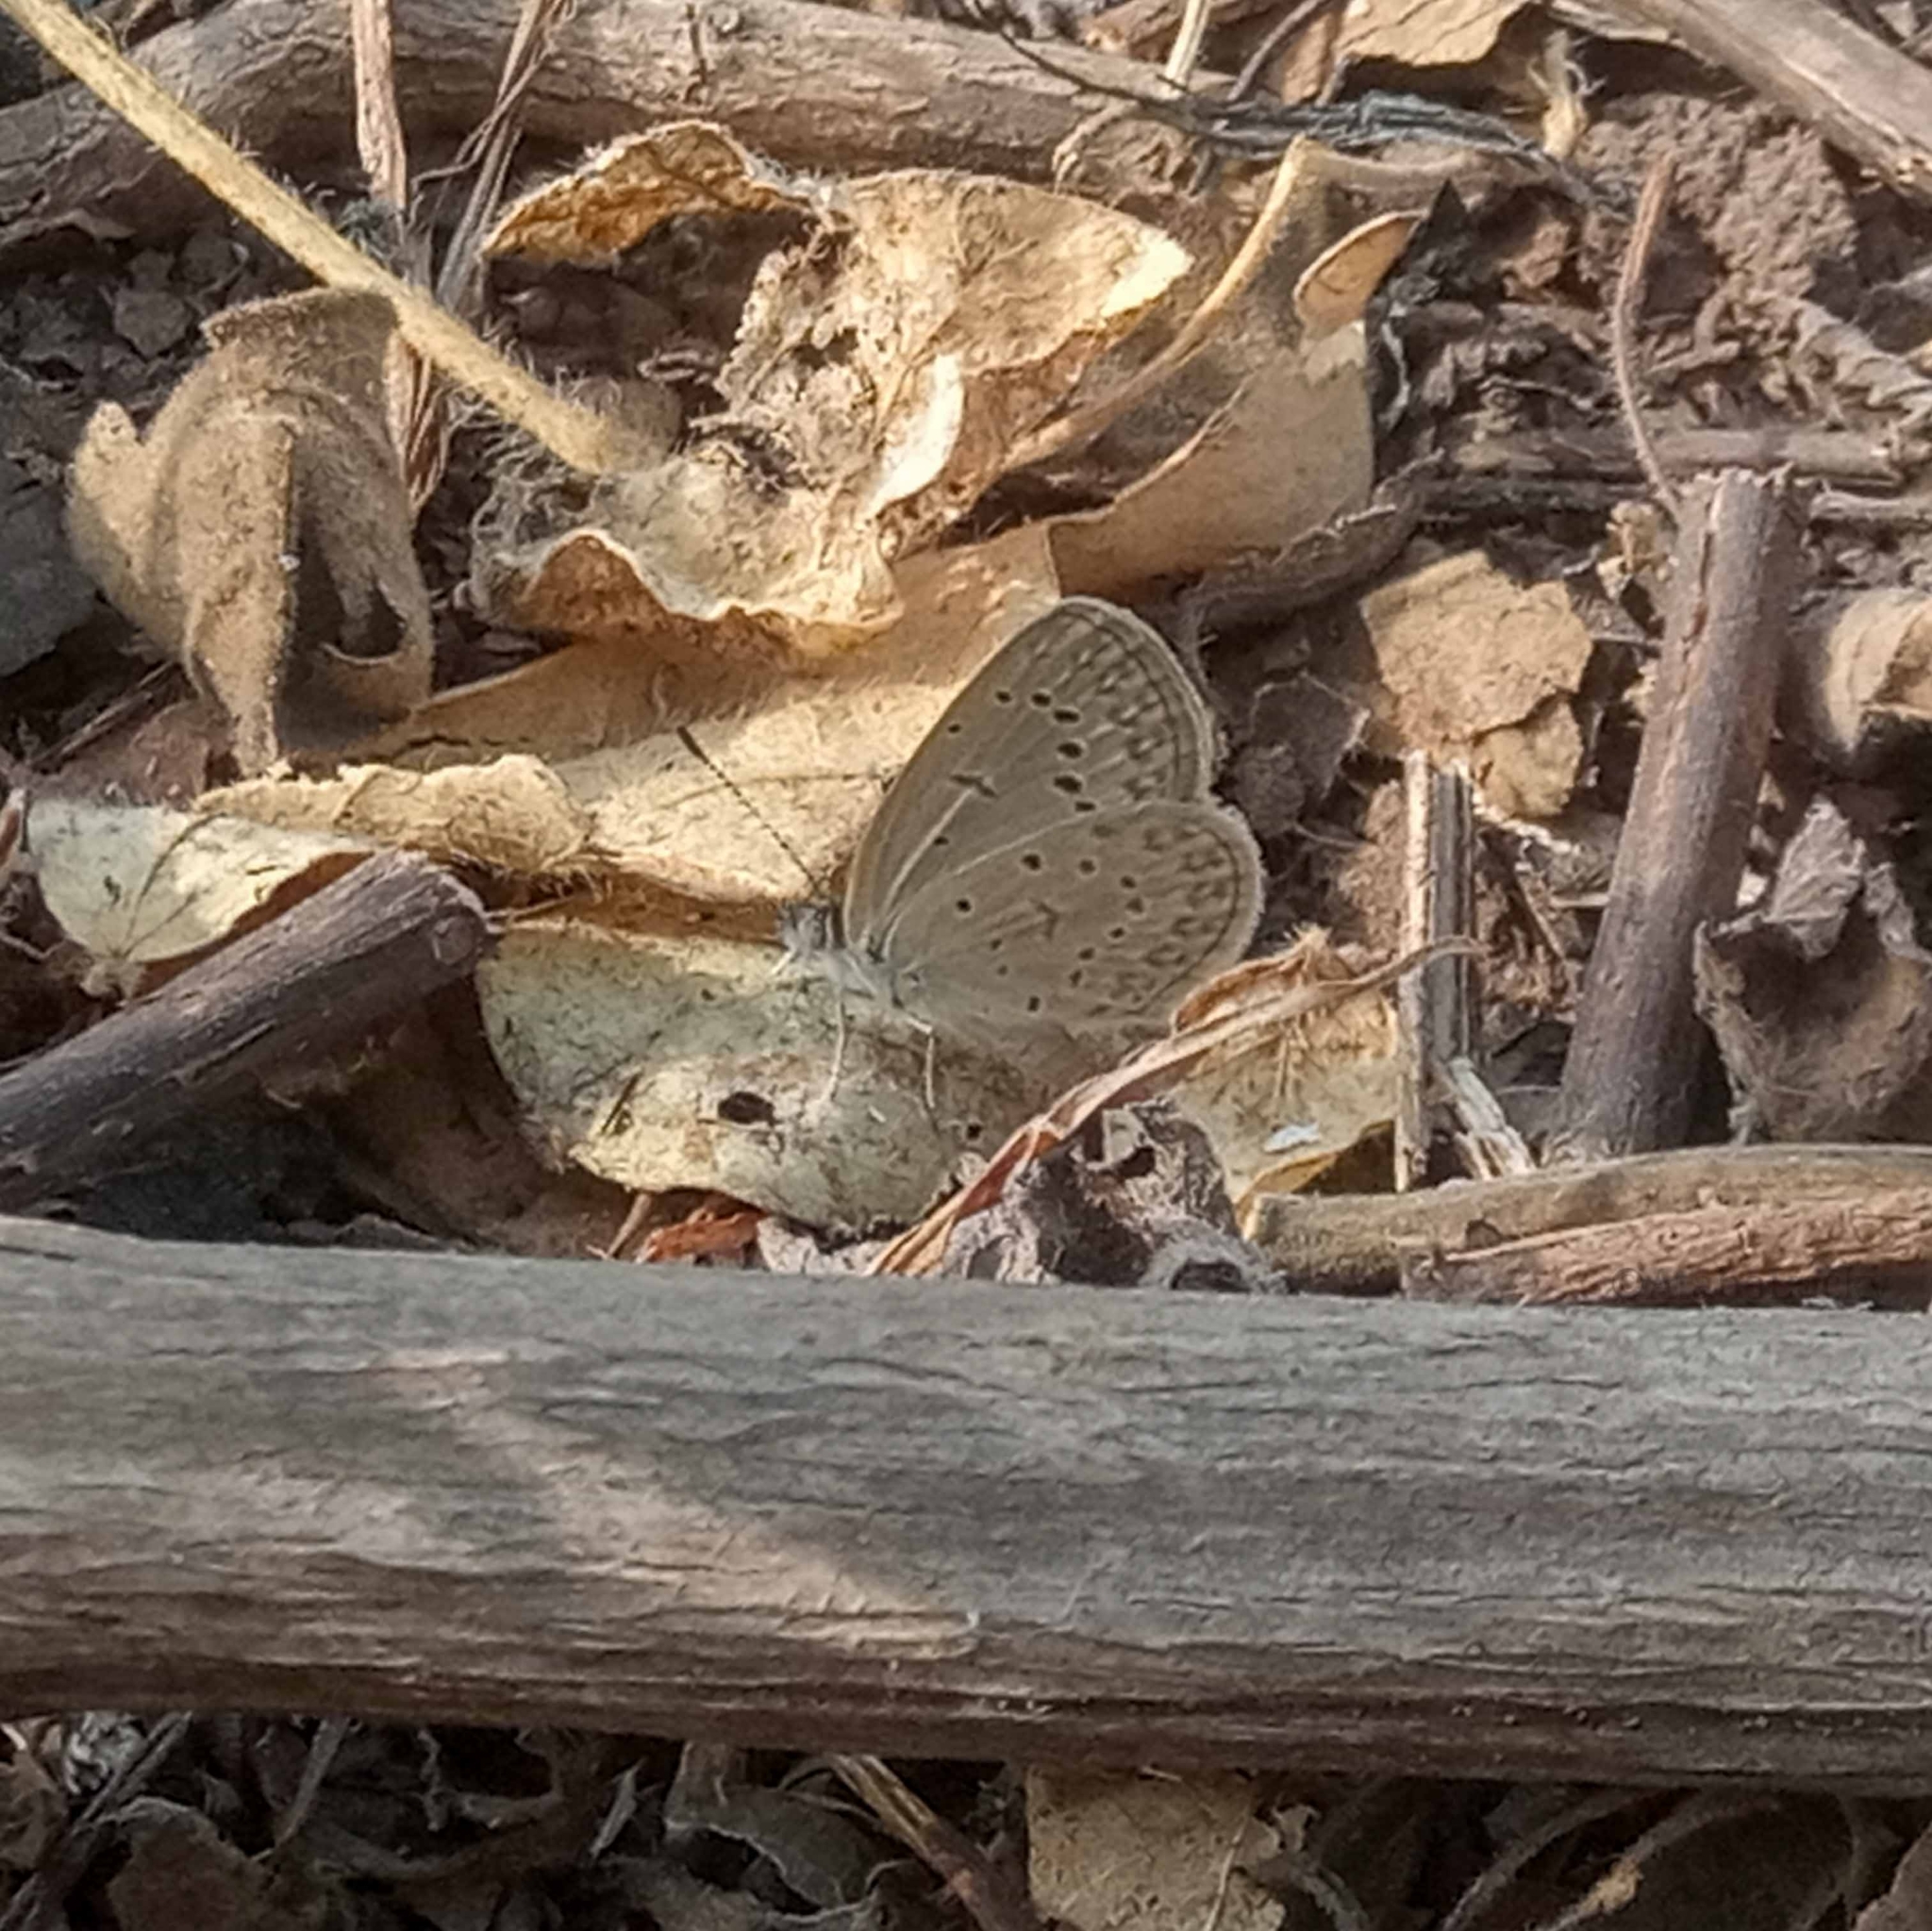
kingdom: Animalia
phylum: Arthropoda
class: Insecta
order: Lepidoptera
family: Lycaenidae
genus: Zizeeria
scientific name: Zizeeria knysna
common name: African grass blue
